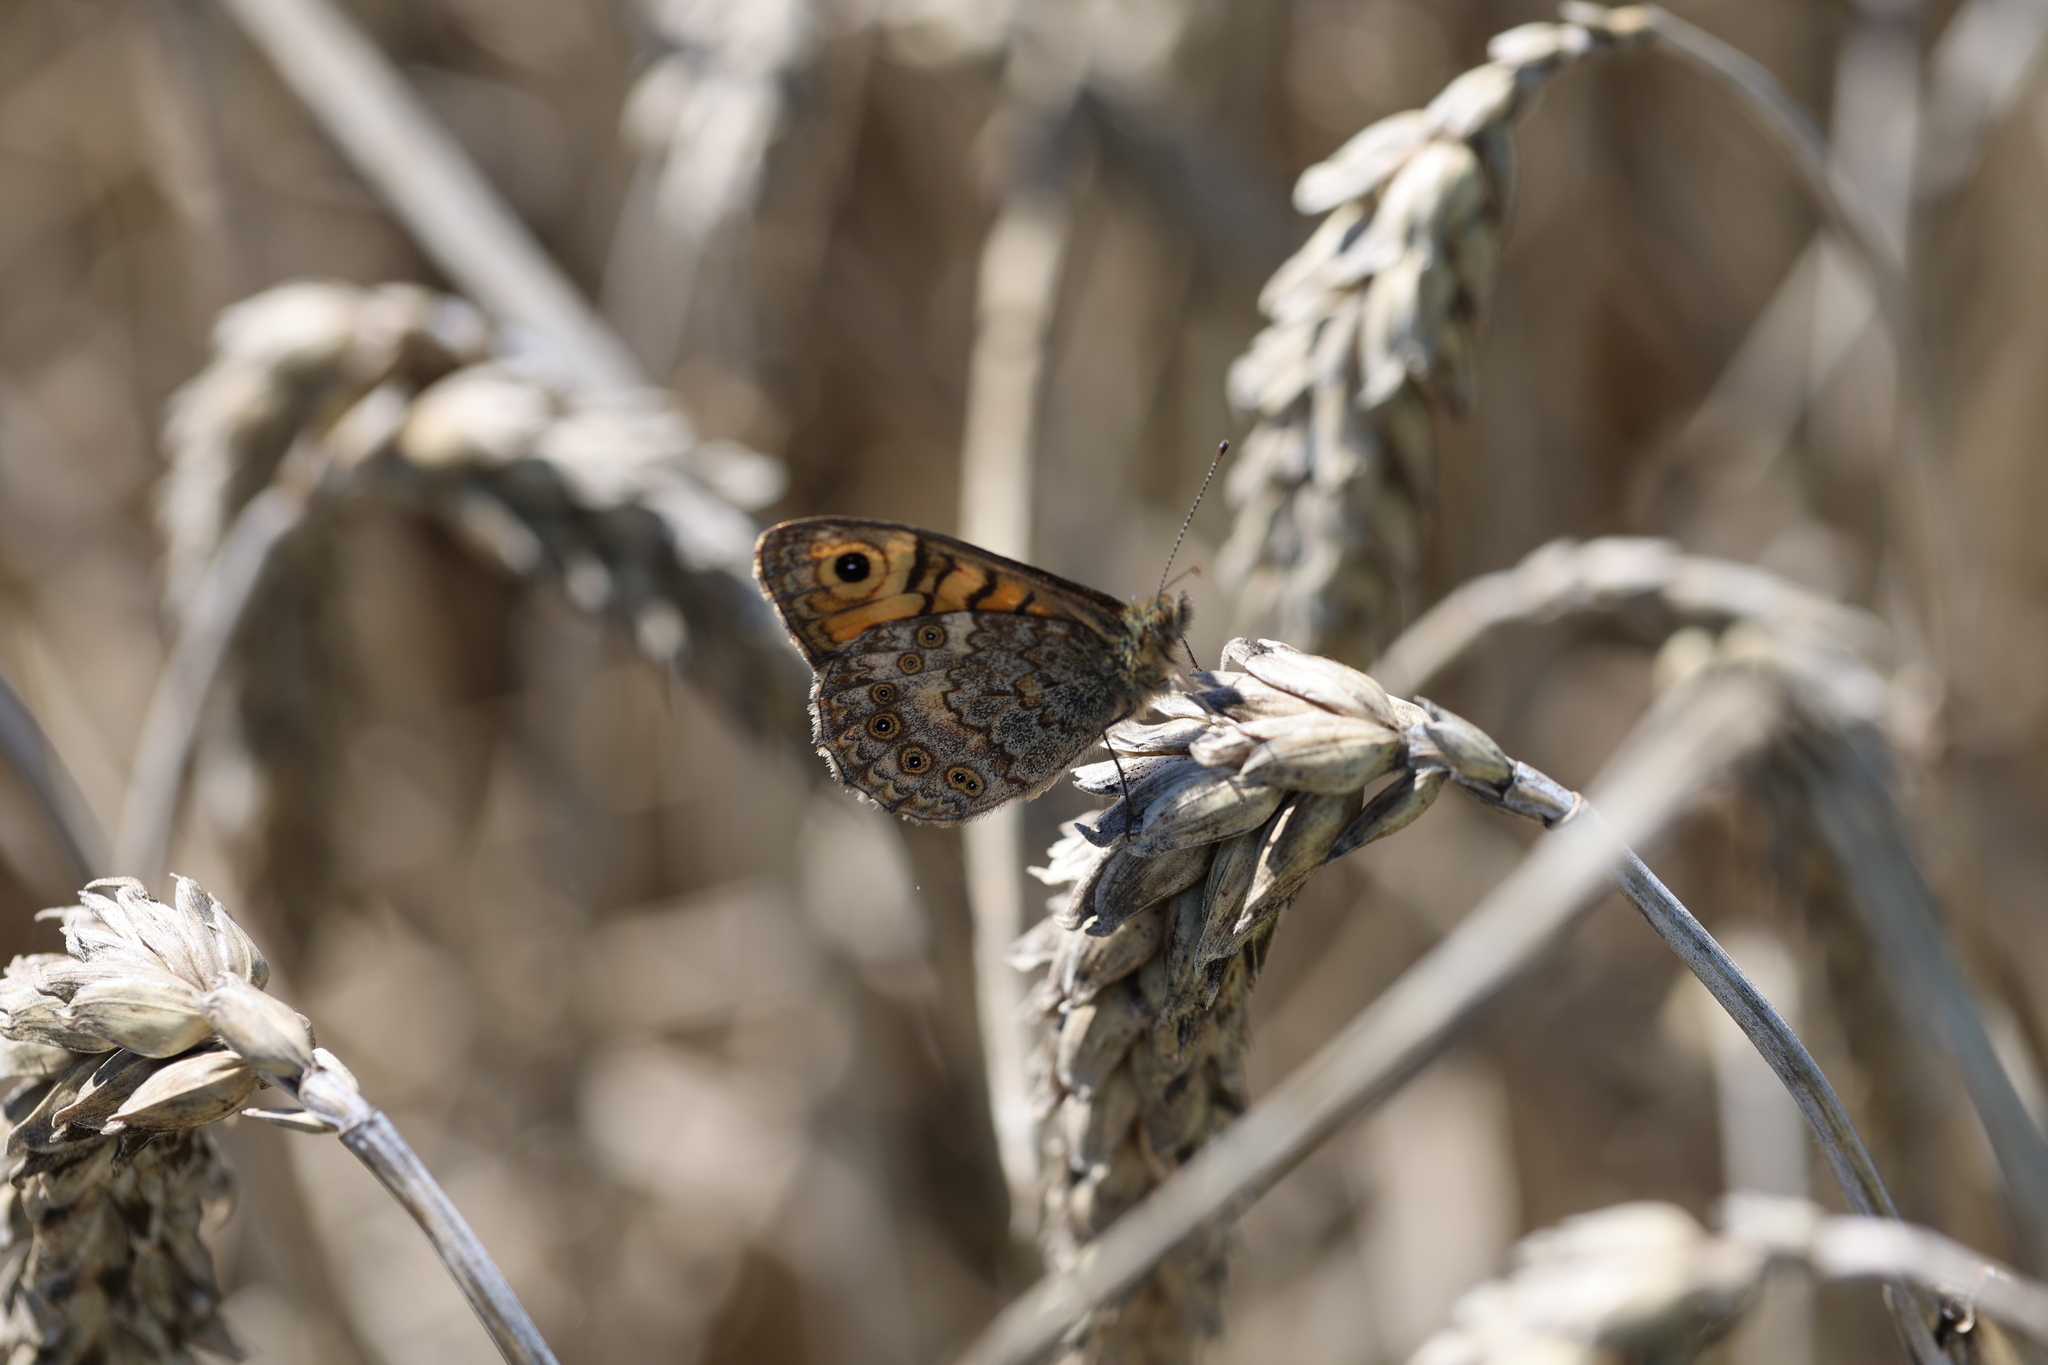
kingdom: Animalia
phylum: Arthropoda
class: Insecta
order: Lepidoptera
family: Nymphalidae
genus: Pararge
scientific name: Pararge Lasiommata megera
